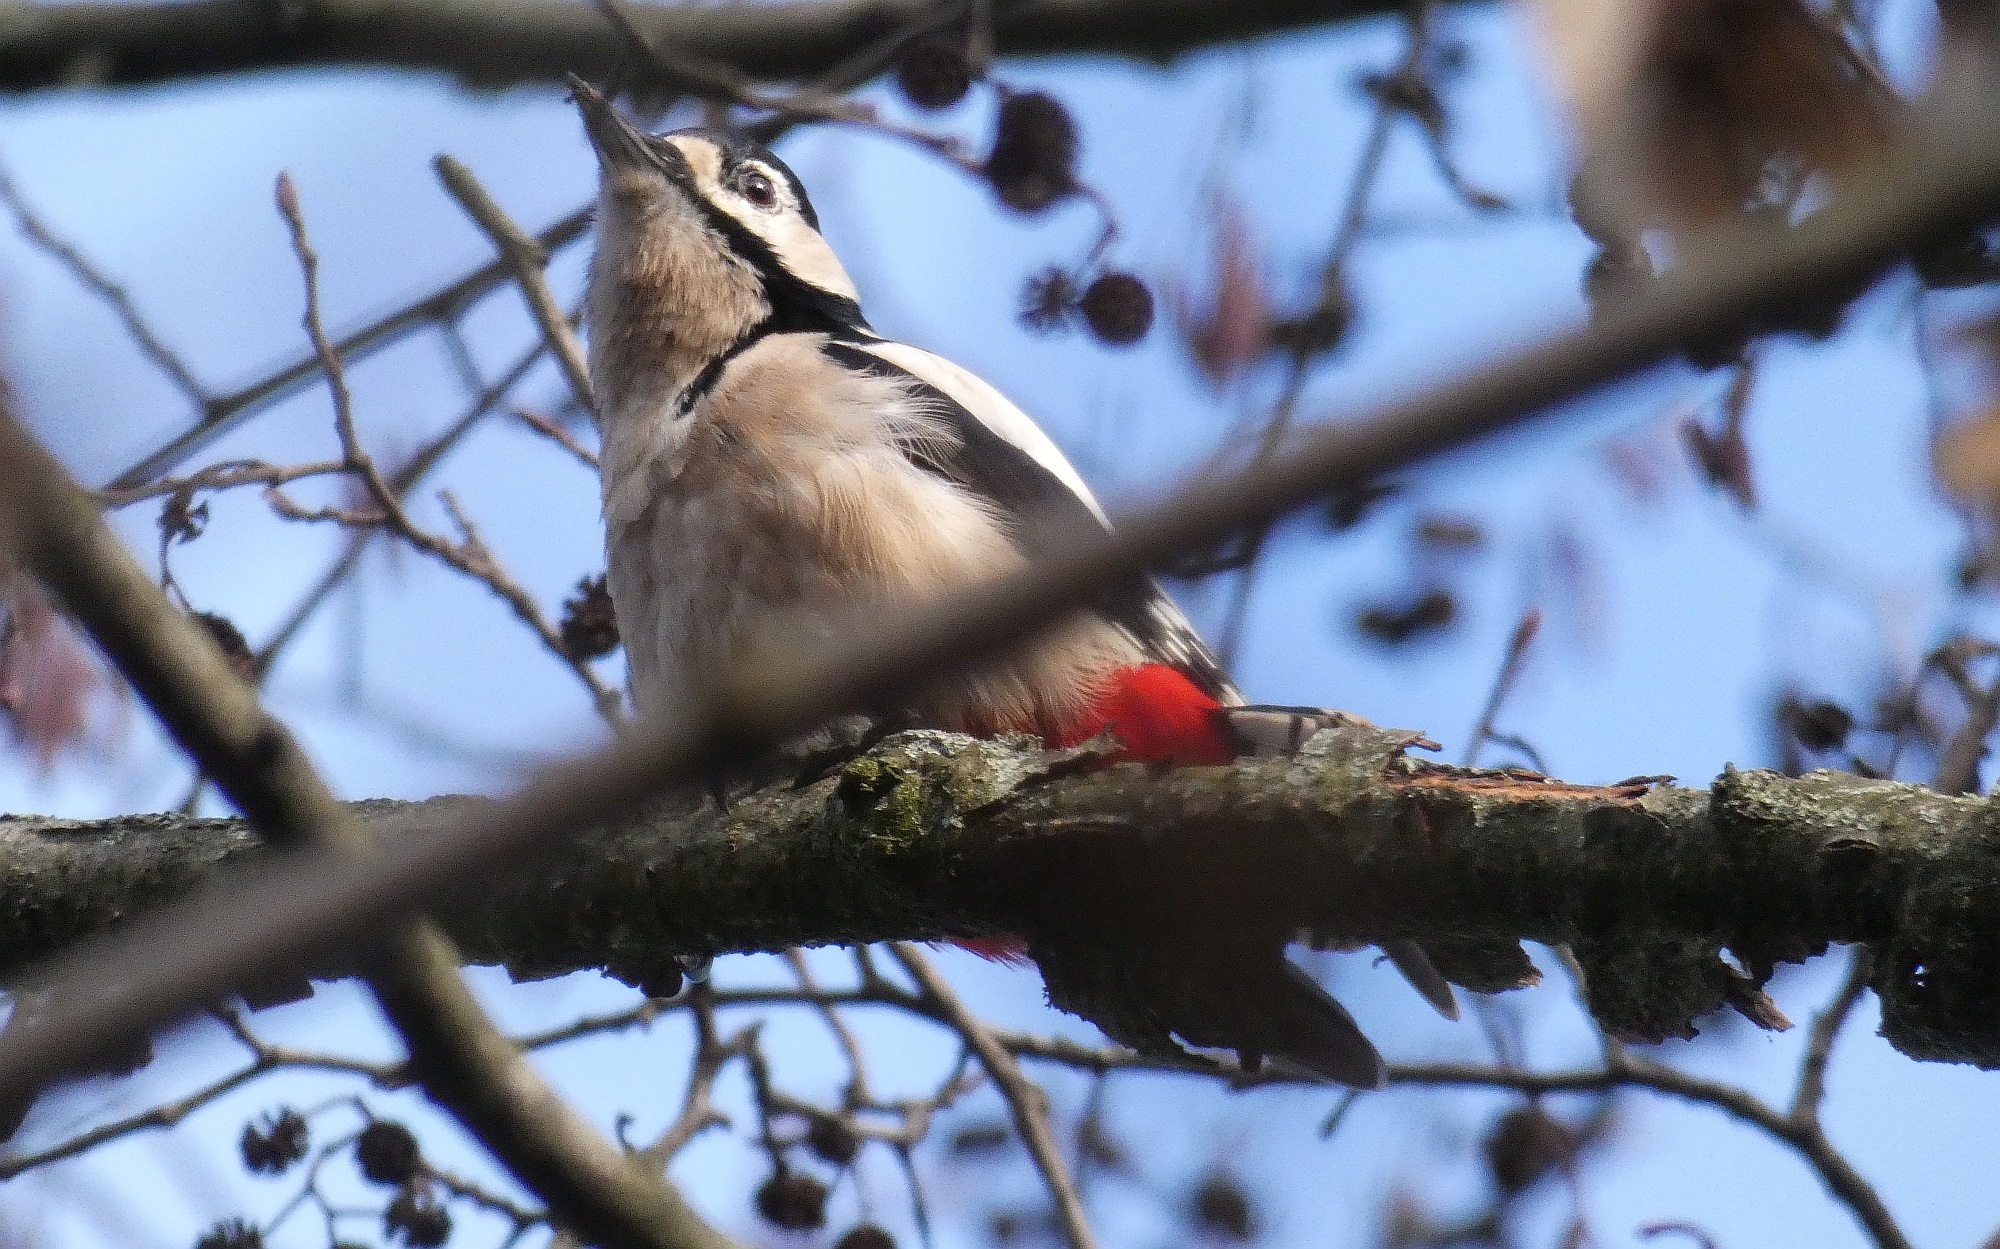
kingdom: Animalia
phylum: Chordata
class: Aves
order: Piciformes
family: Picidae
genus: Dendrocopos
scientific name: Dendrocopos major
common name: Great spotted woodpecker
